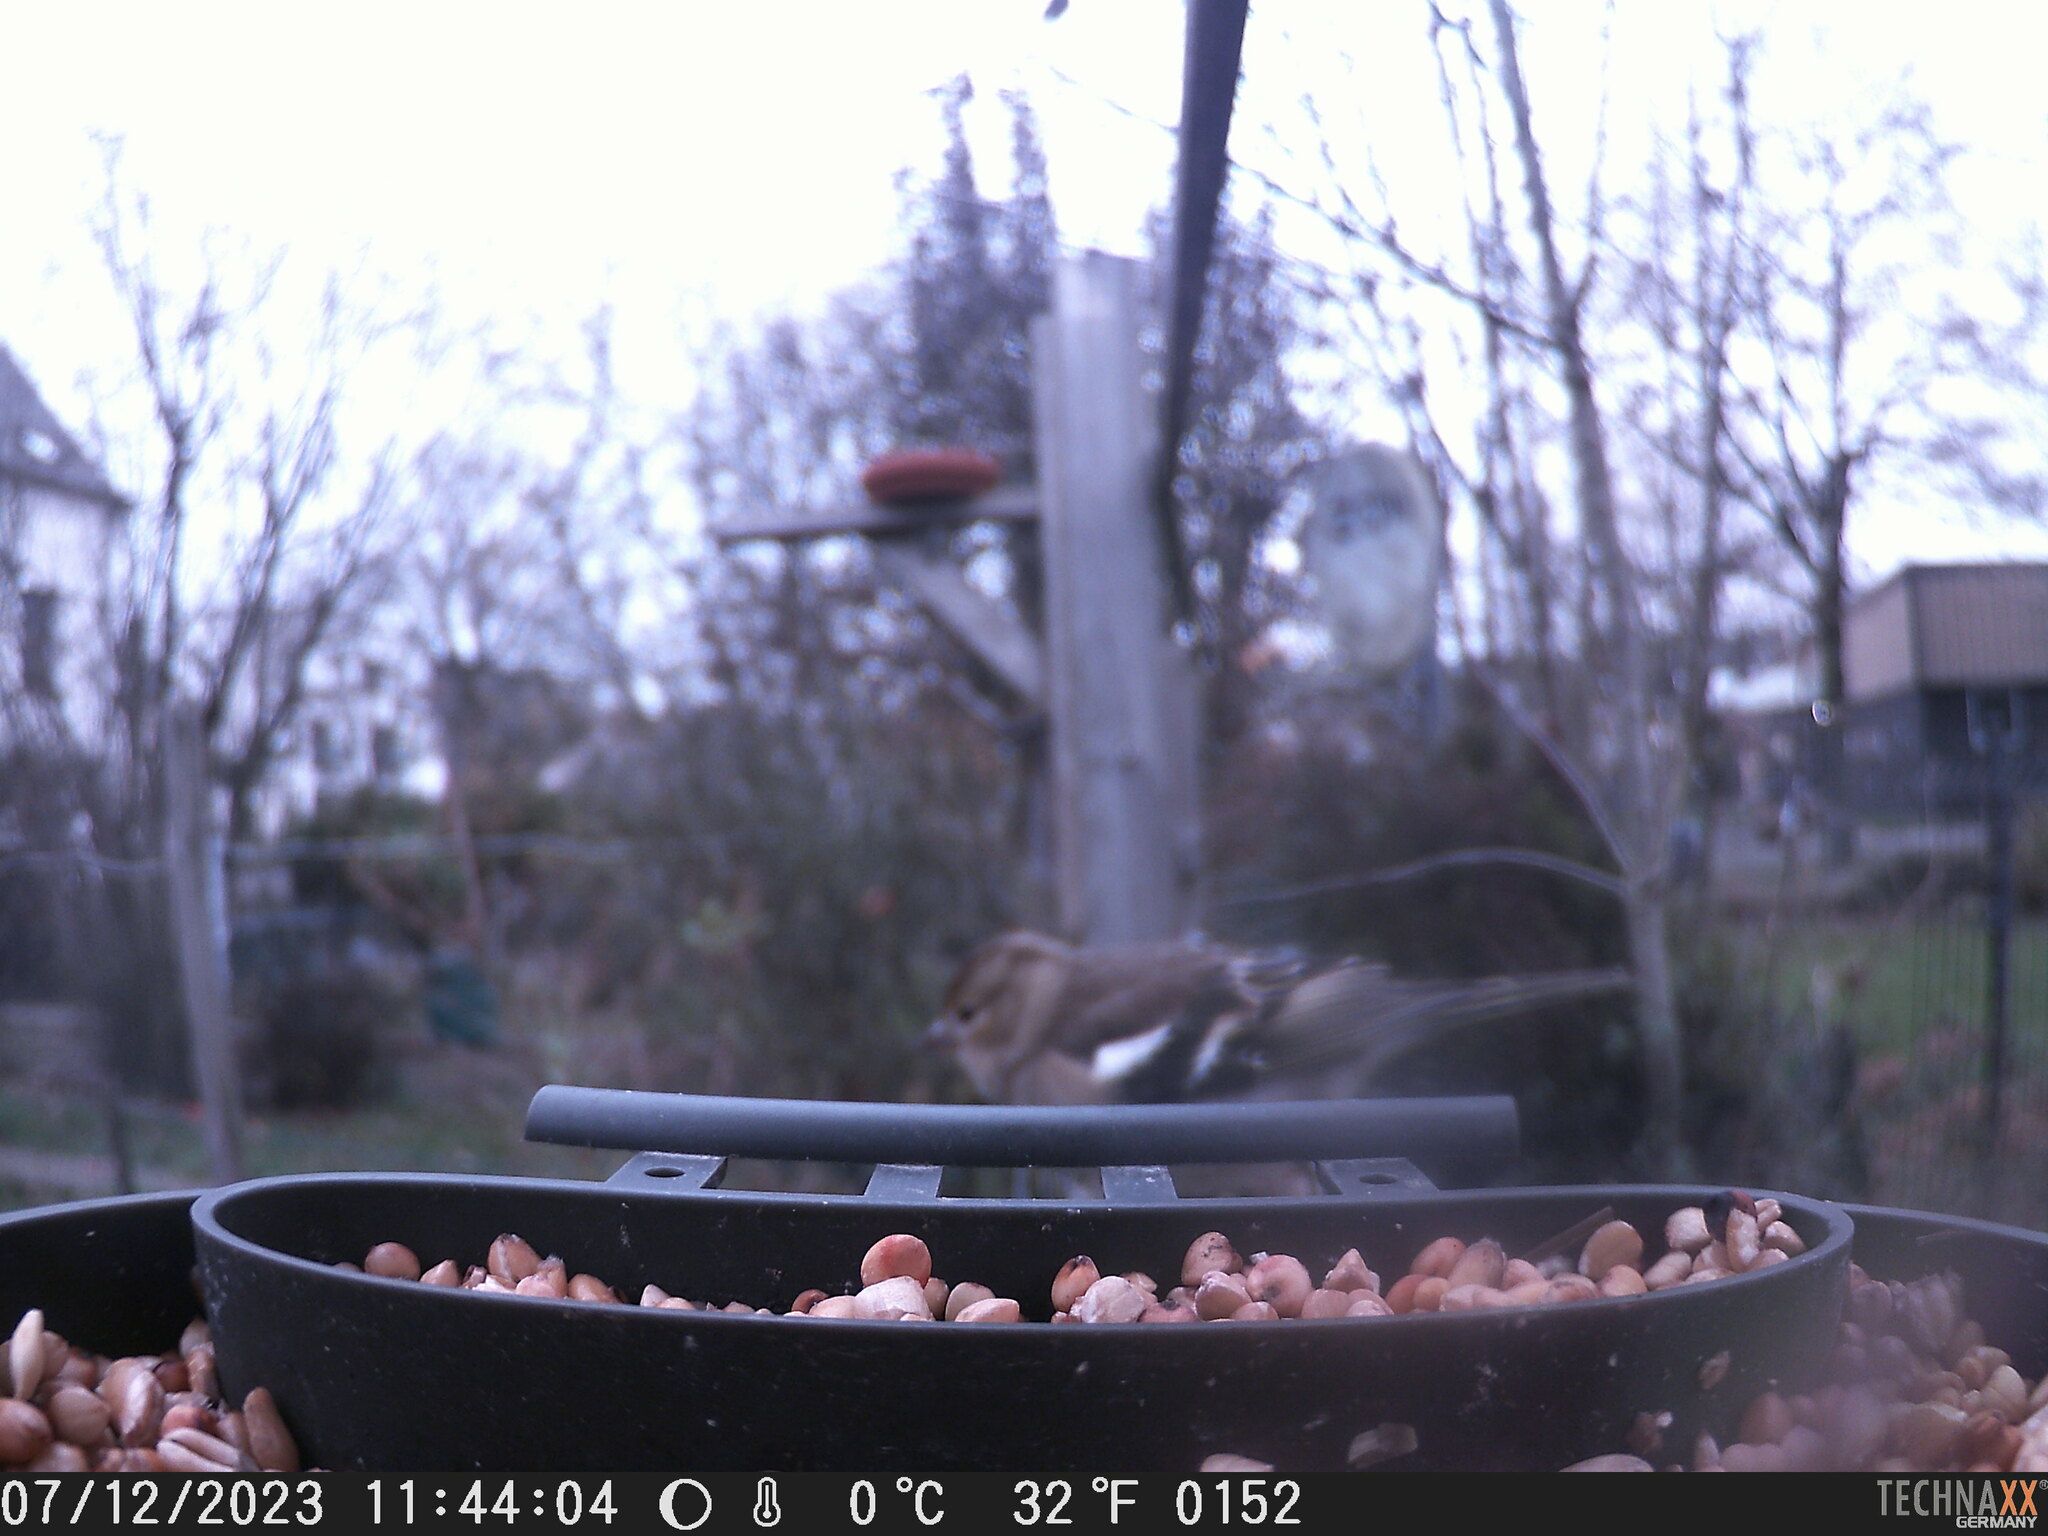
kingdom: Animalia
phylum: Chordata
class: Aves
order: Passeriformes
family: Fringillidae
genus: Fringilla
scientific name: Fringilla coelebs
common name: Common chaffinch
